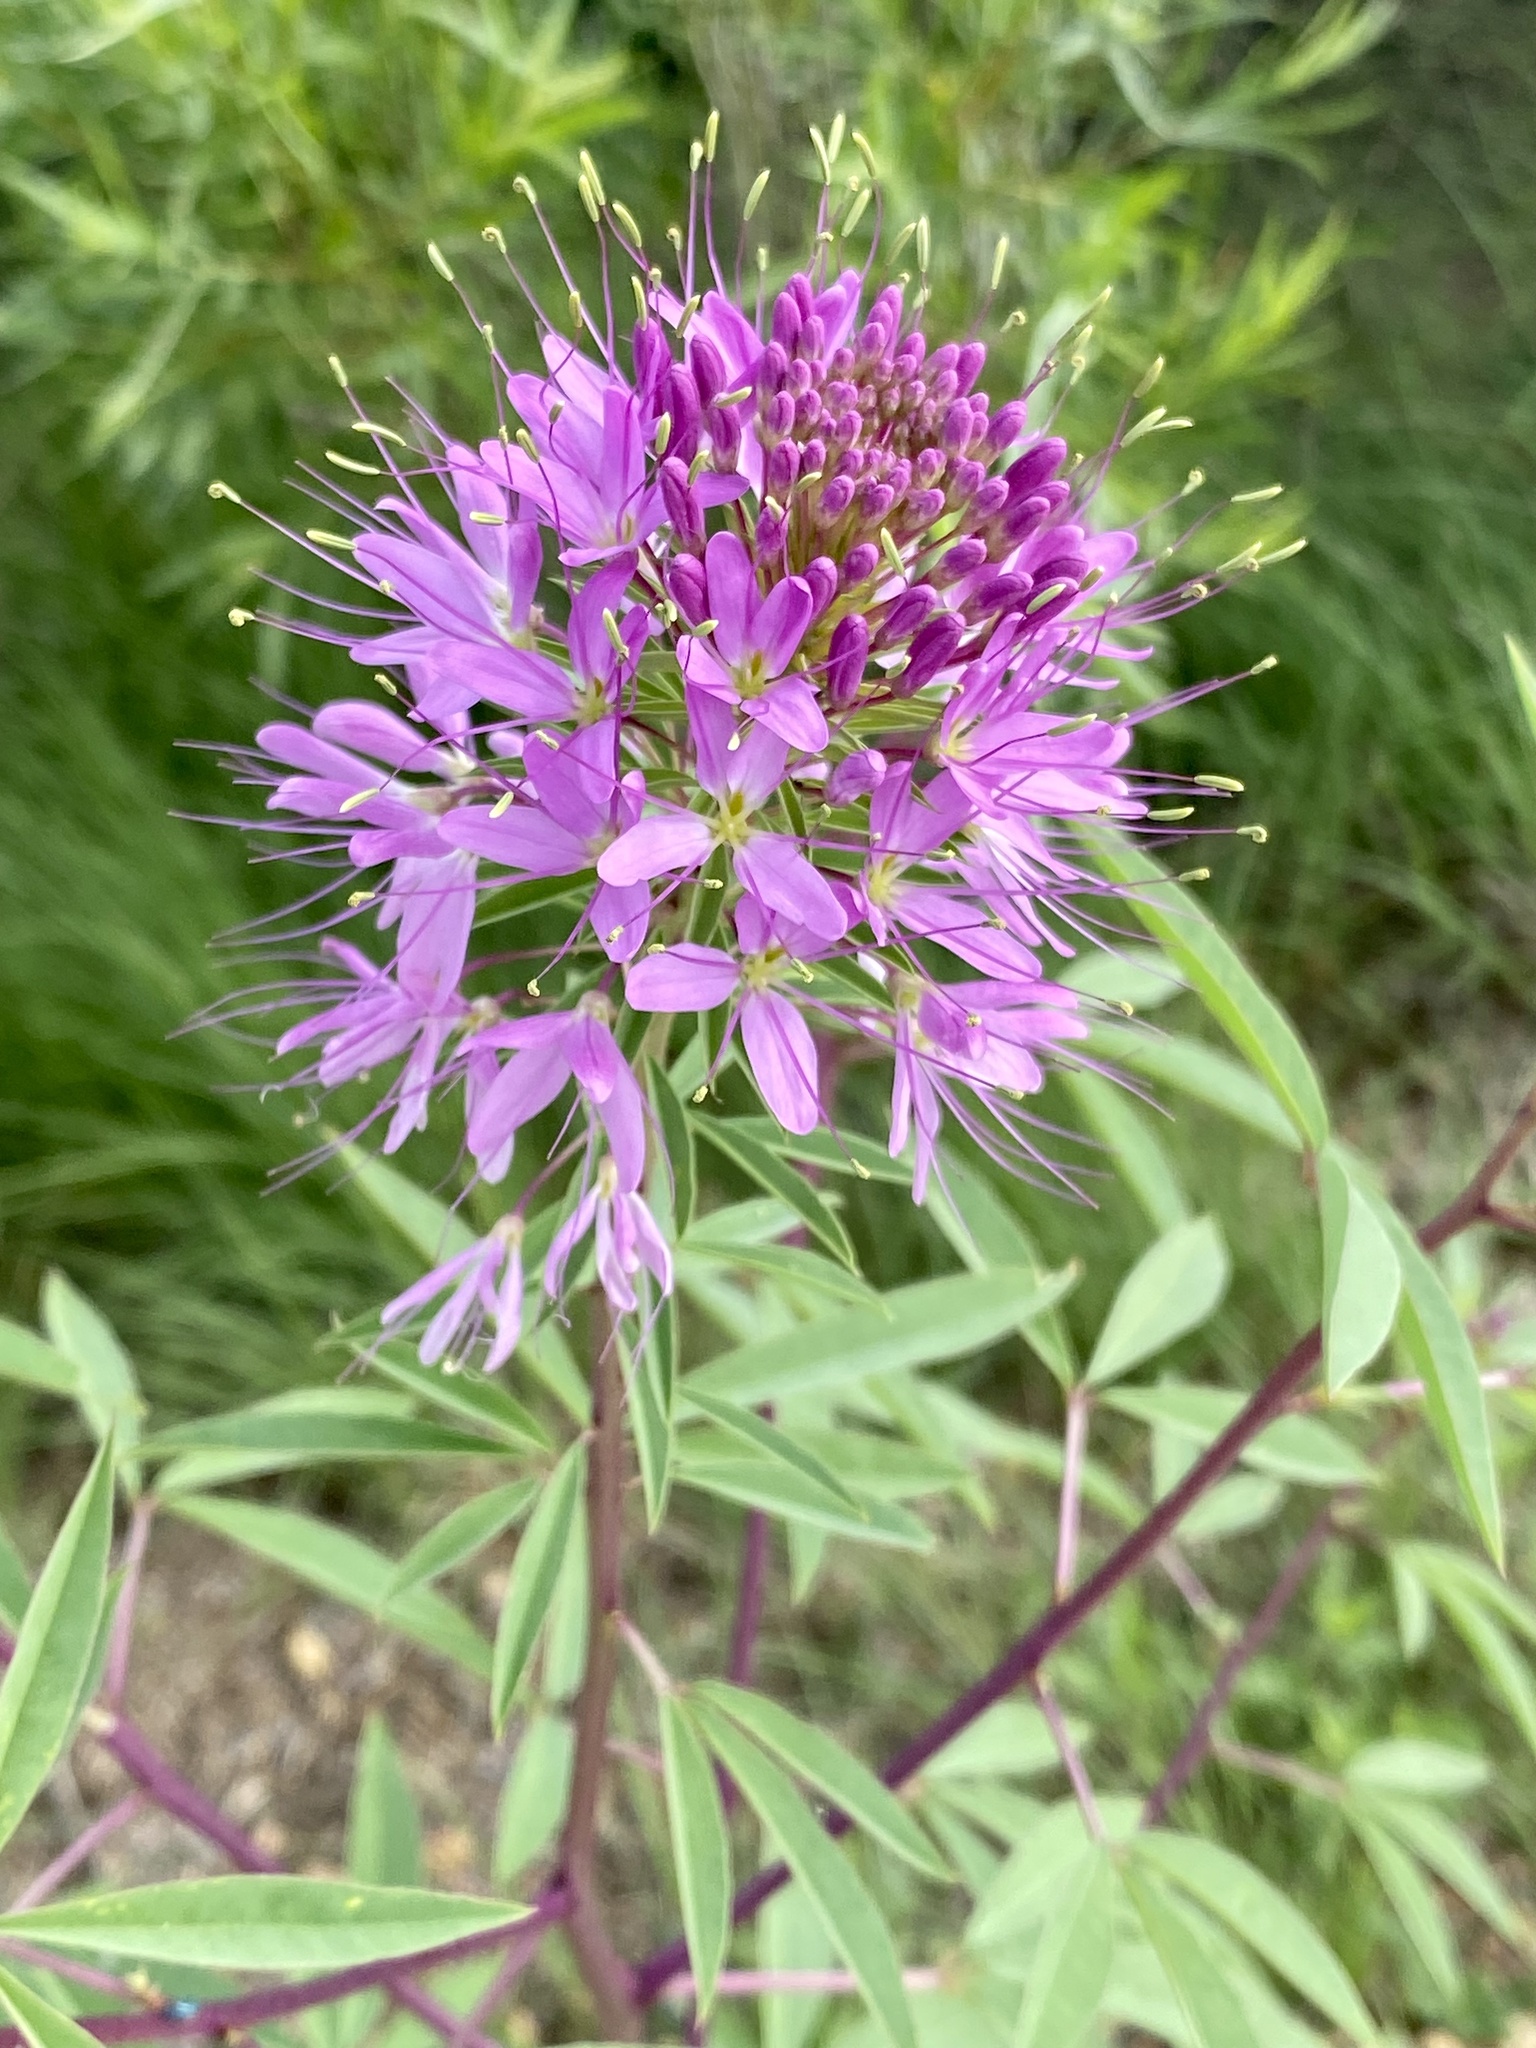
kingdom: Plantae
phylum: Tracheophyta
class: Magnoliopsida
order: Brassicales
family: Cleomaceae
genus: Cleomella
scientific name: Cleomella serrulata
